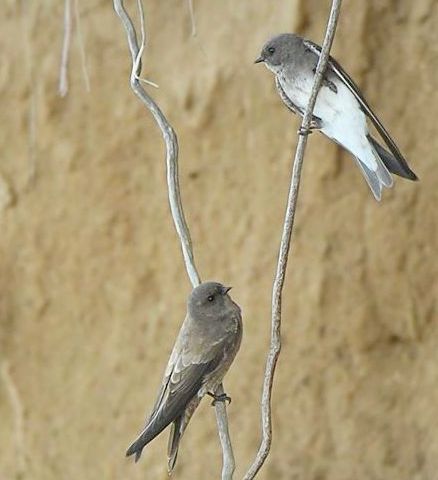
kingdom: Animalia
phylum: Chordata
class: Aves
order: Passeriformes
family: Hirundinidae
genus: Riparia
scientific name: Riparia paludicola
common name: Brown-throated martin
